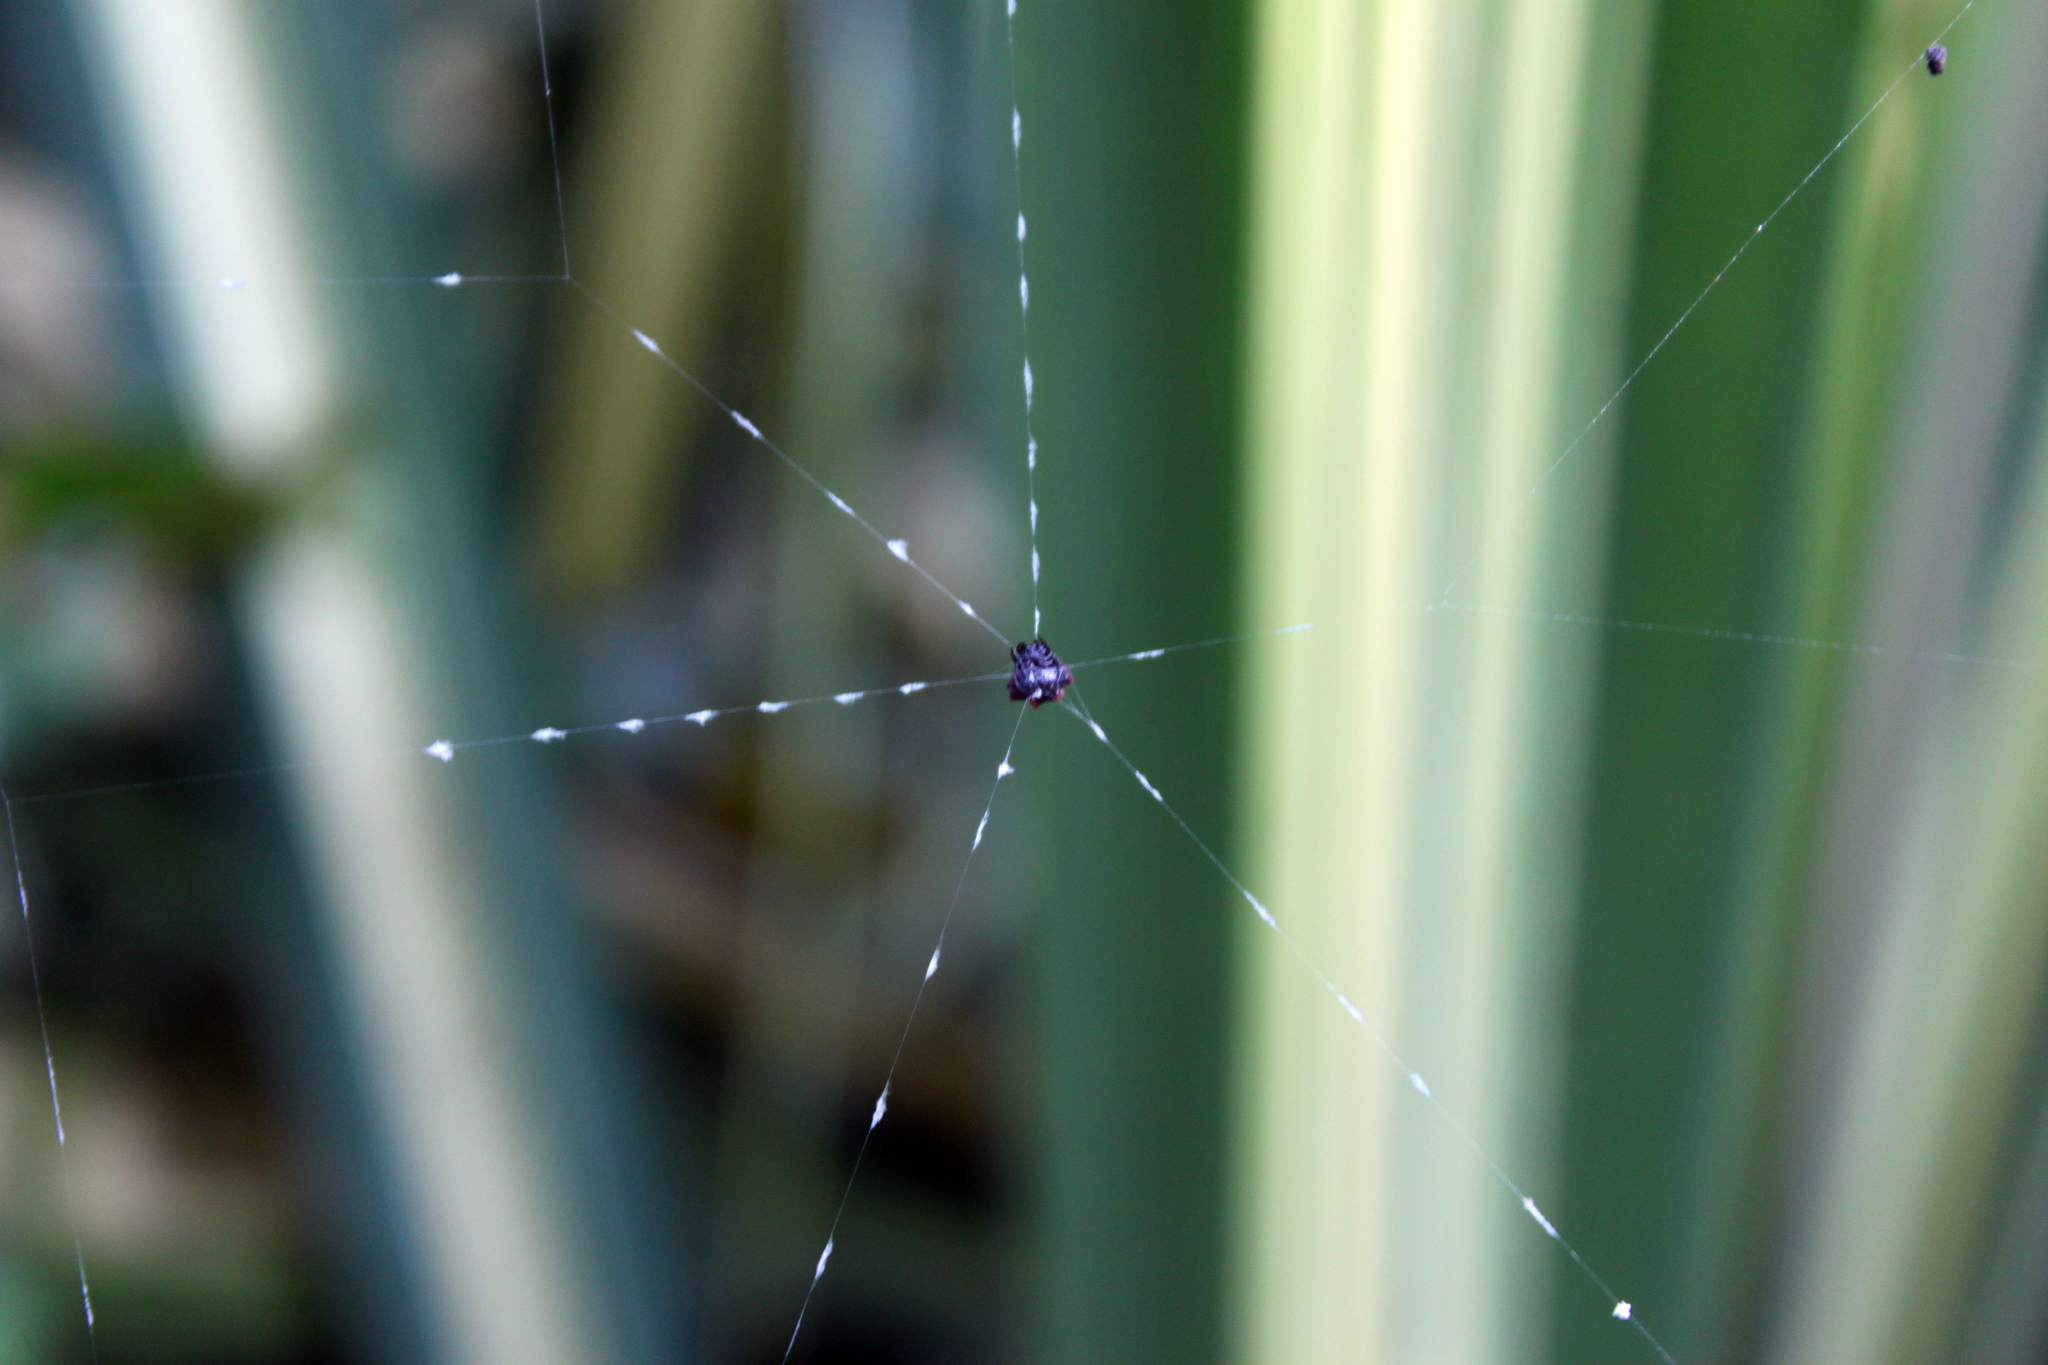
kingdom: Animalia
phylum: Arthropoda
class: Arachnida
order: Araneae
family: Araneidae
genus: Gasteracantha
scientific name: Gasteracantha cancriformis
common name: Orb weavers
